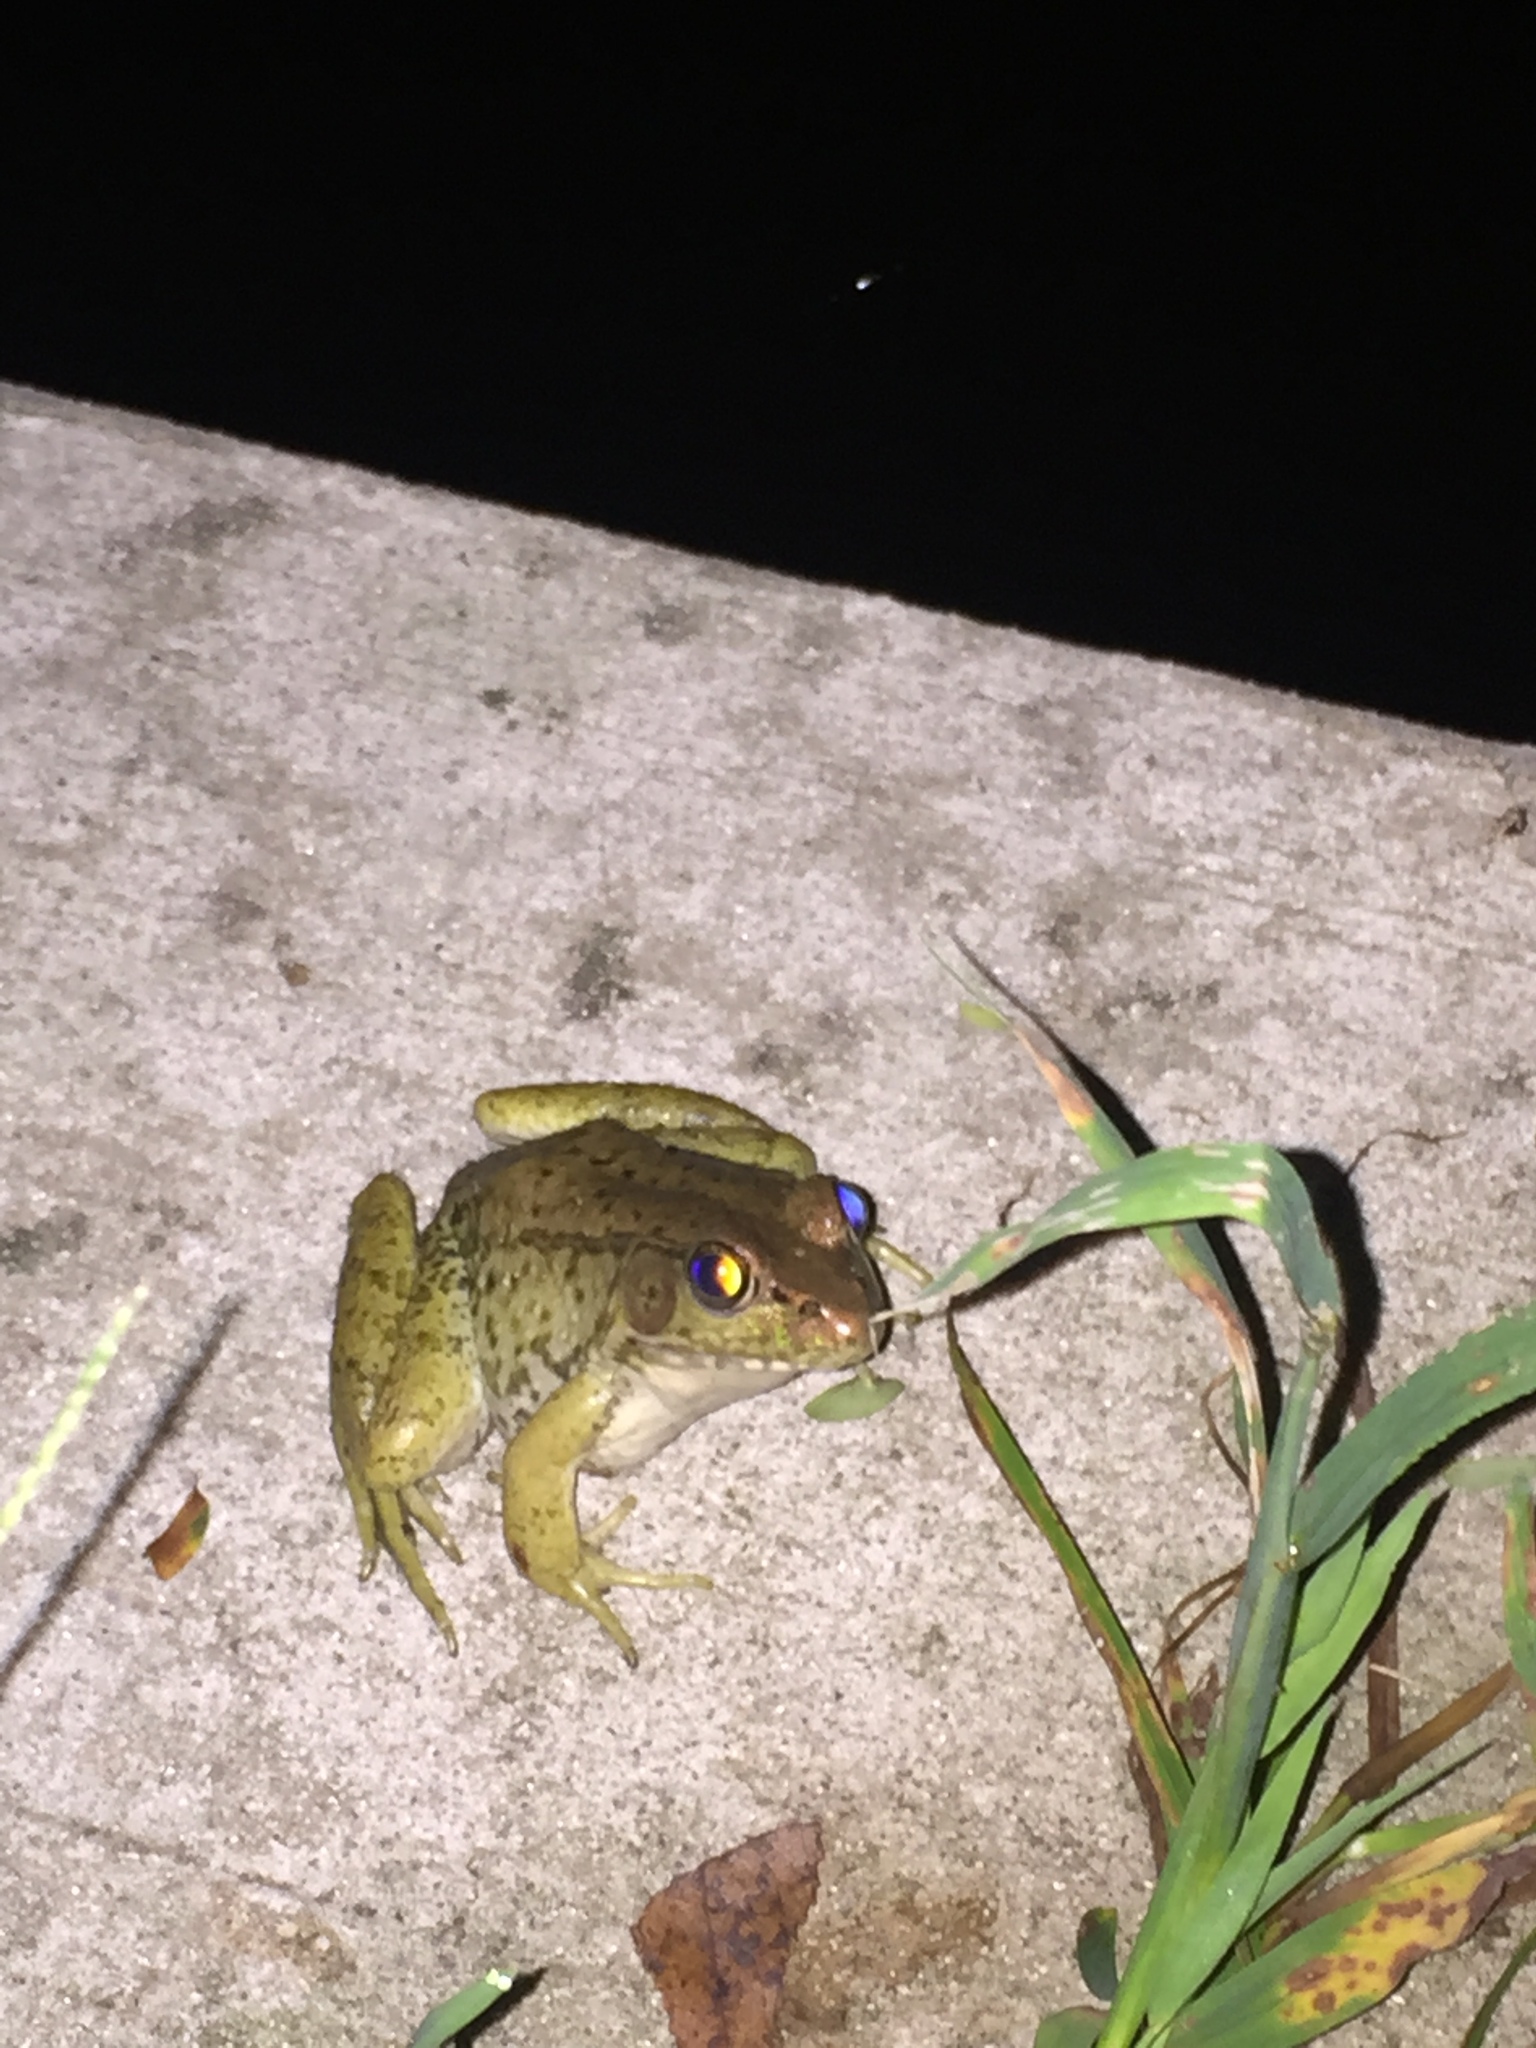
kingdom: Animalia
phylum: Chordata
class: Amphibia
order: Anura
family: Ranidae
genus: Lithobates
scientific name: Lithobates clamitans
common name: Green frog
